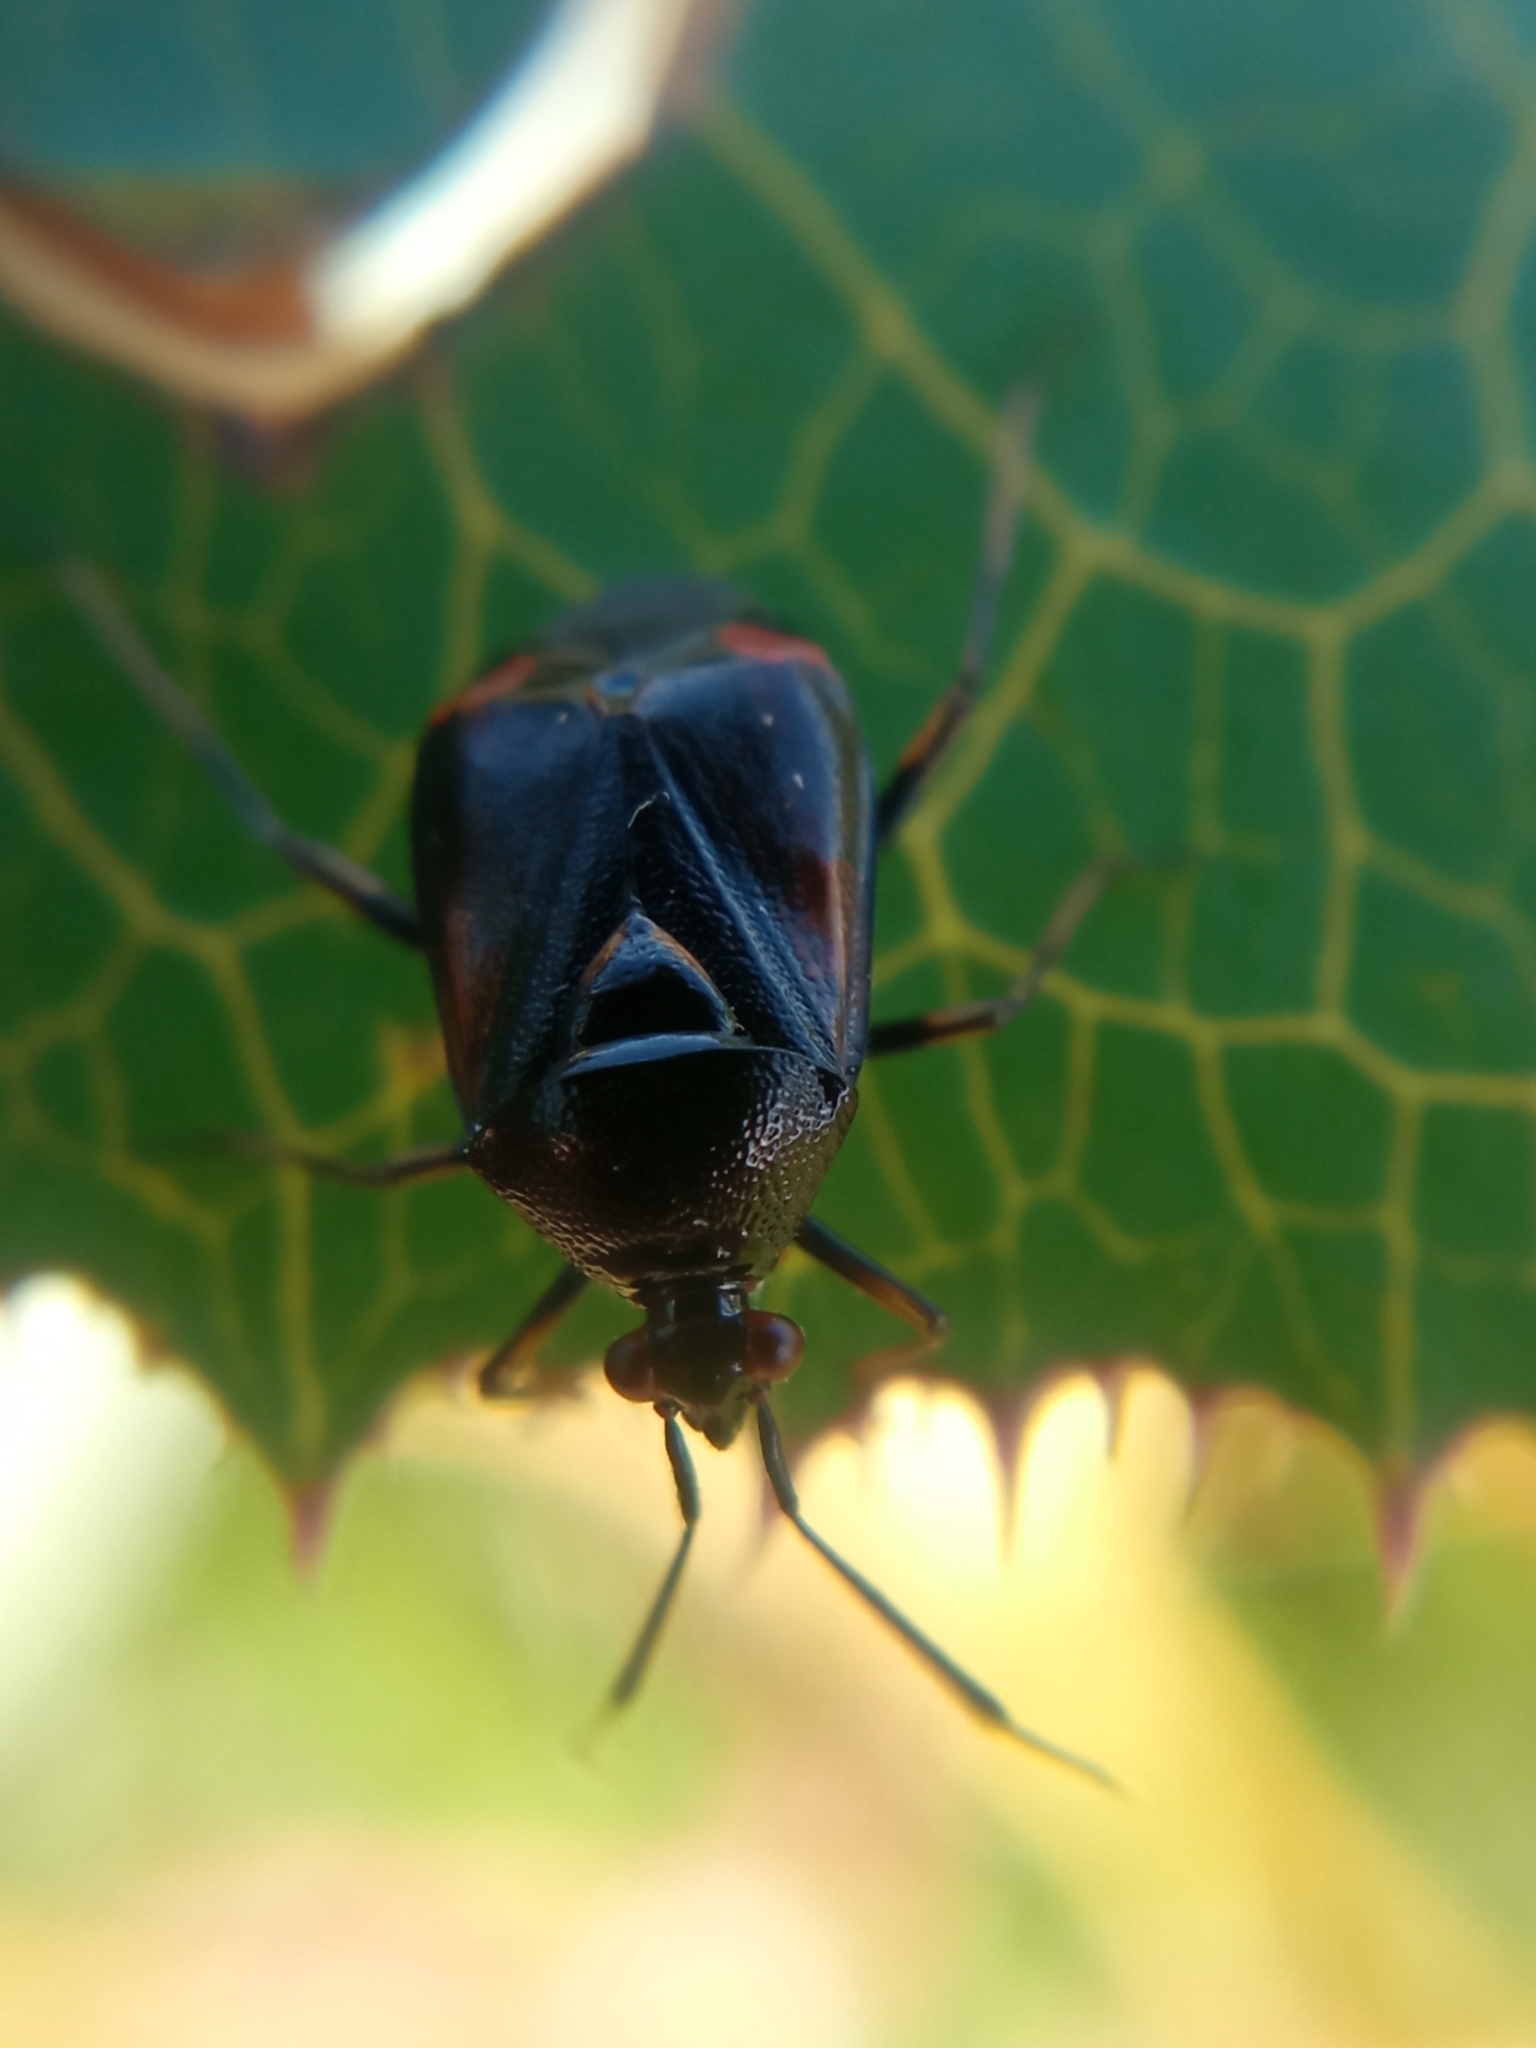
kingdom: Animalia
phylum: Arthropoda
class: Insecta
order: Hemiptera
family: Miridae
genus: Deraeocoris
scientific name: Deraeocoris ruber
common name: Plant bug
